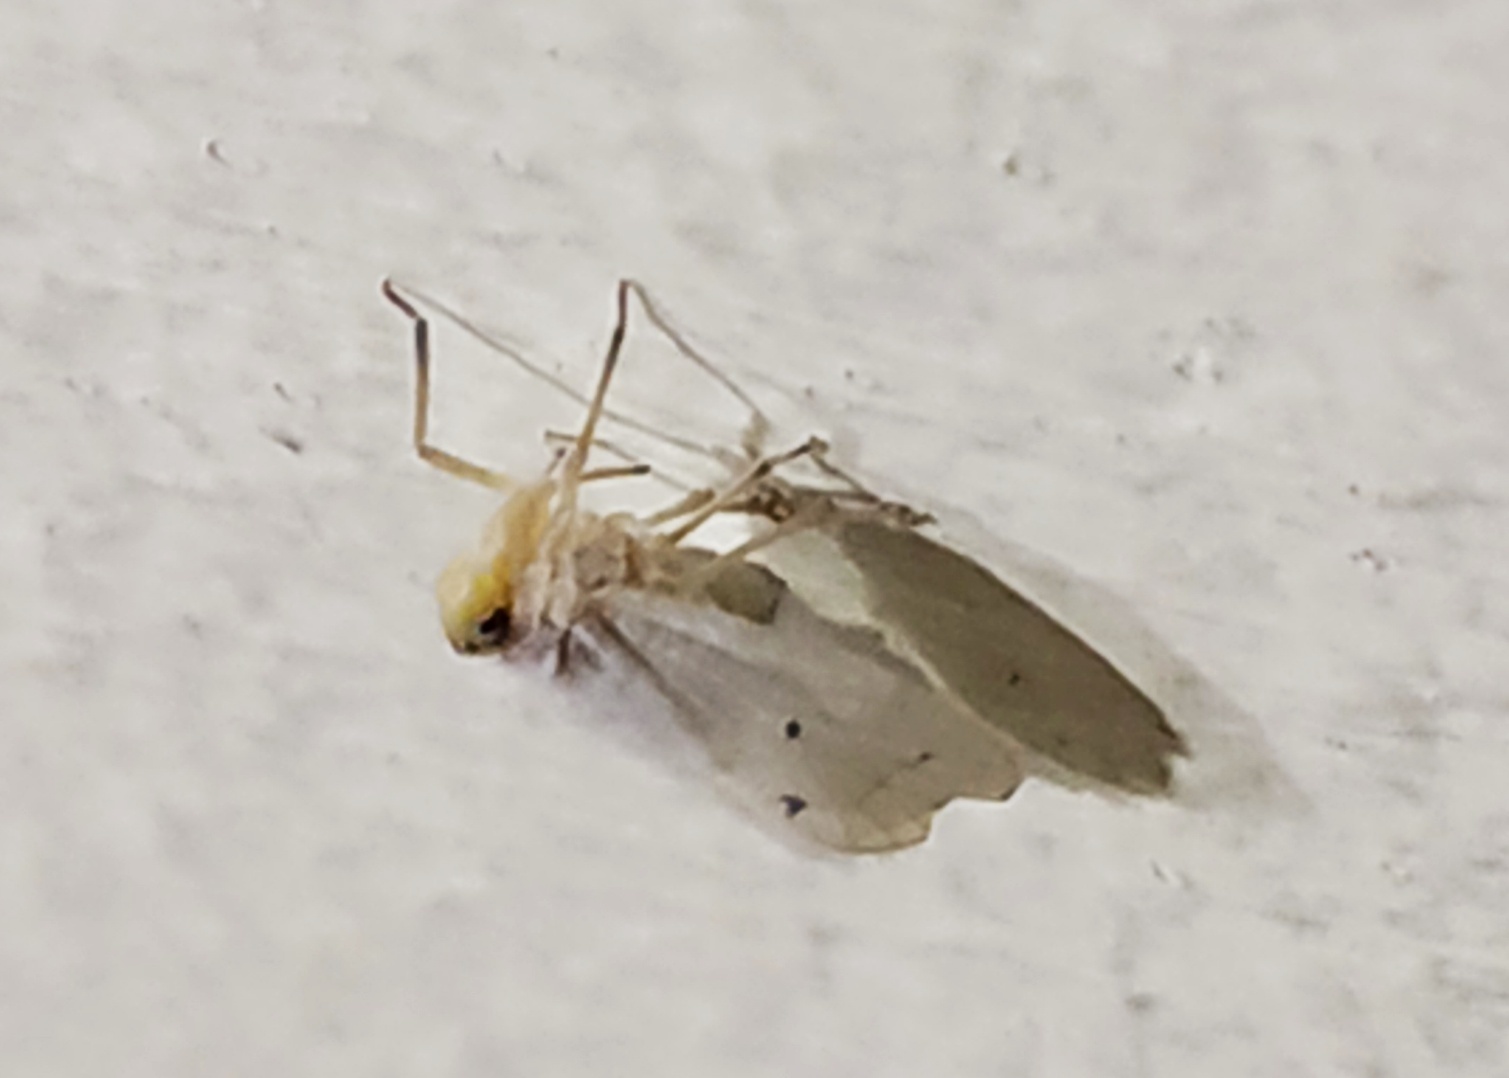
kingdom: Animalia
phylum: Arthropoda
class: Insecta
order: Hemiptera
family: Kinnaridae
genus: Kinnara
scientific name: Kinnara trimaculata
